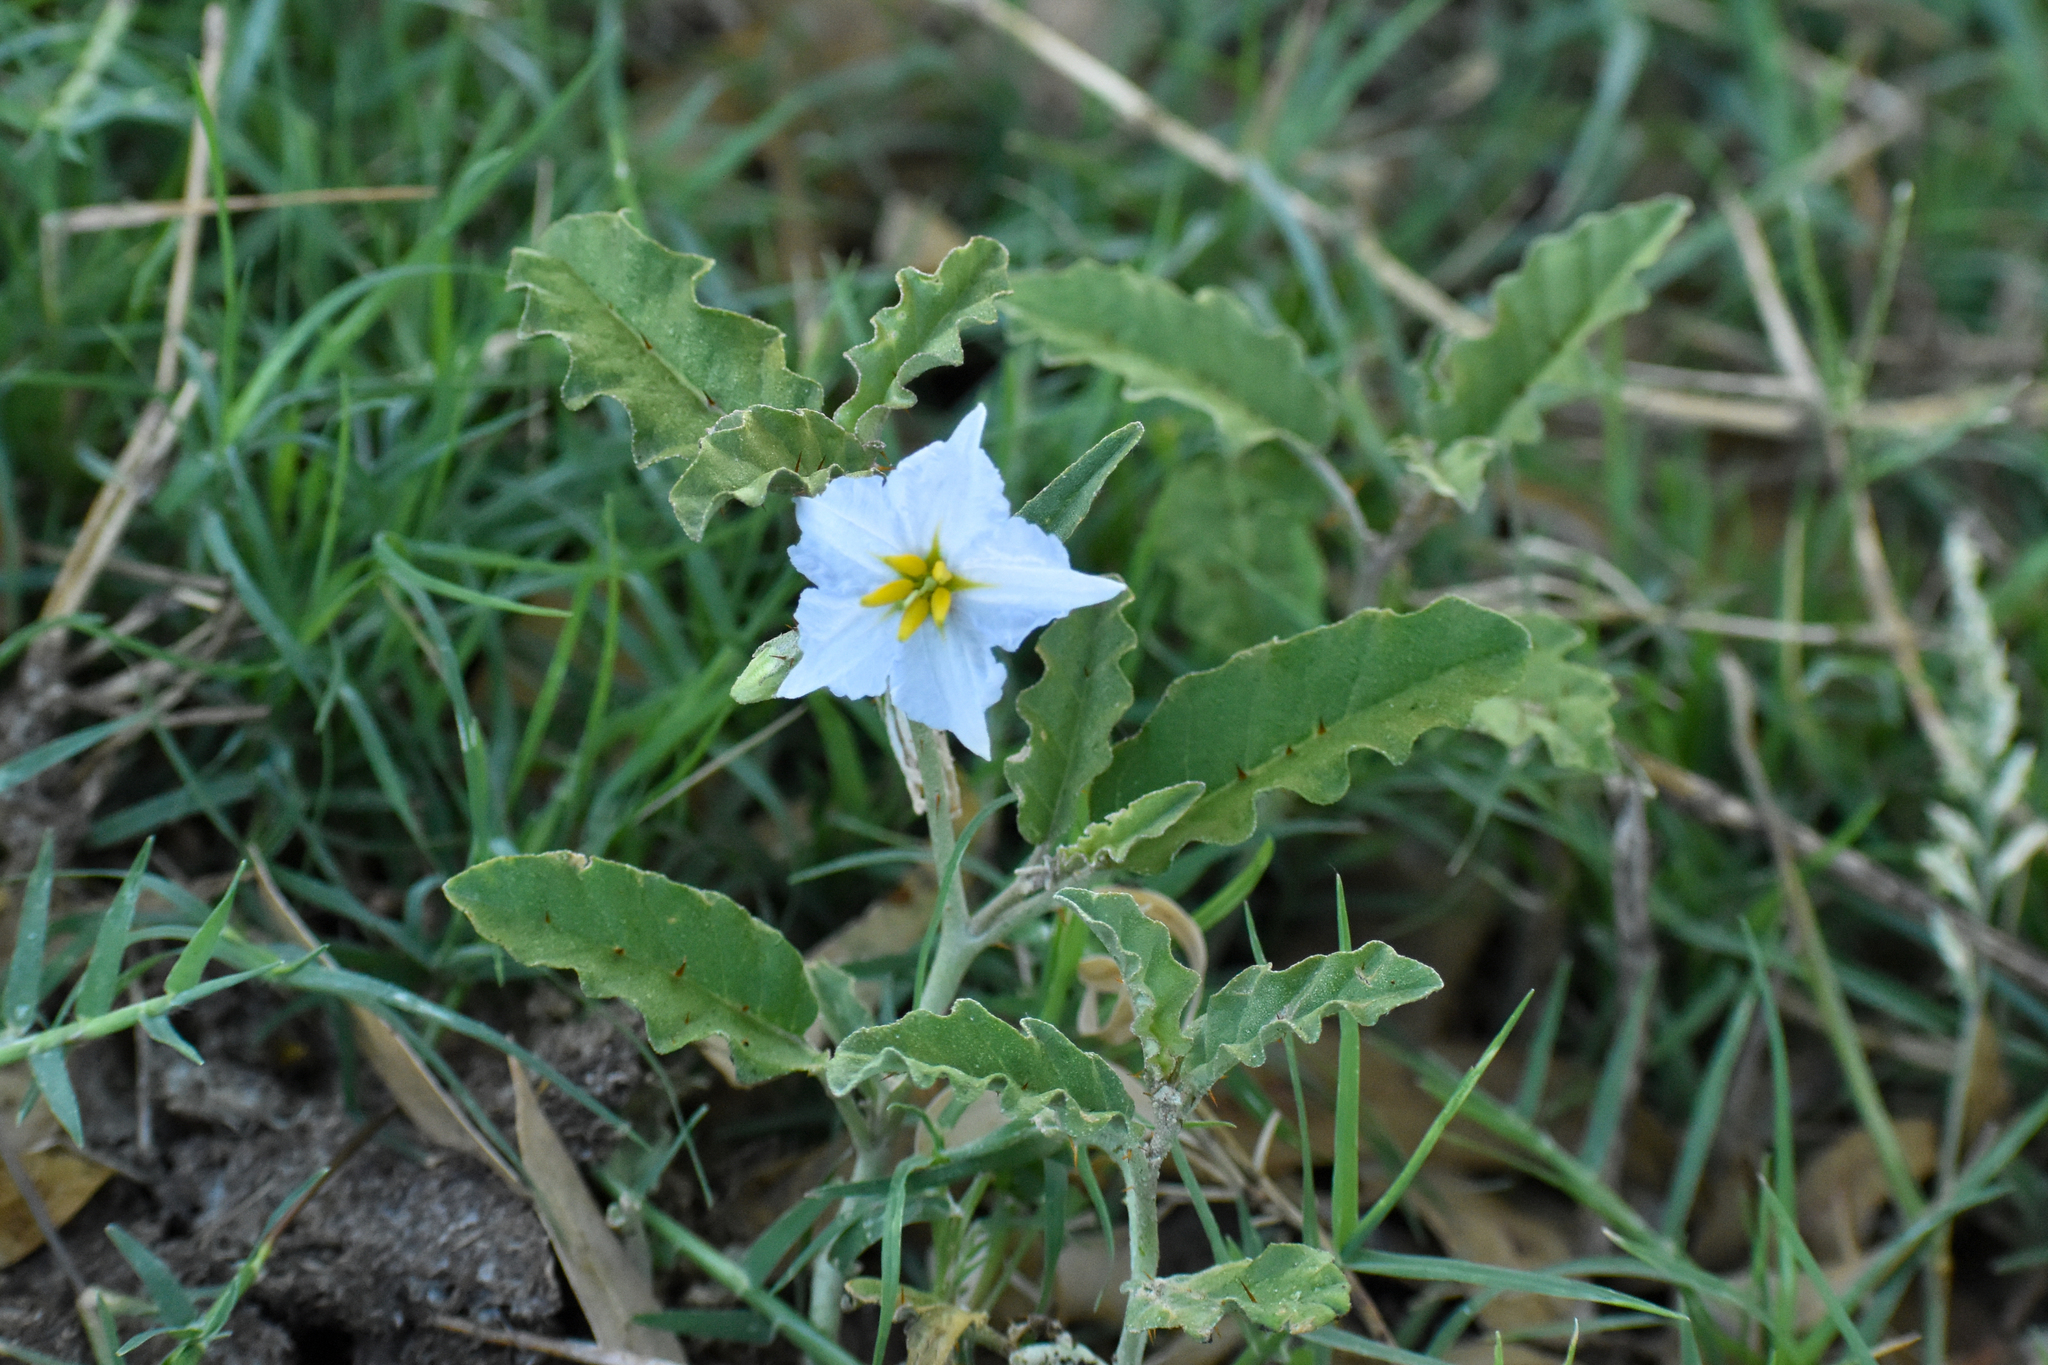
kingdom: Plantae
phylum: Tracheophyta
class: Magnoliopsida
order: Solanales
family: Solanaceae
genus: Solanum
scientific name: Solanum juvenale
